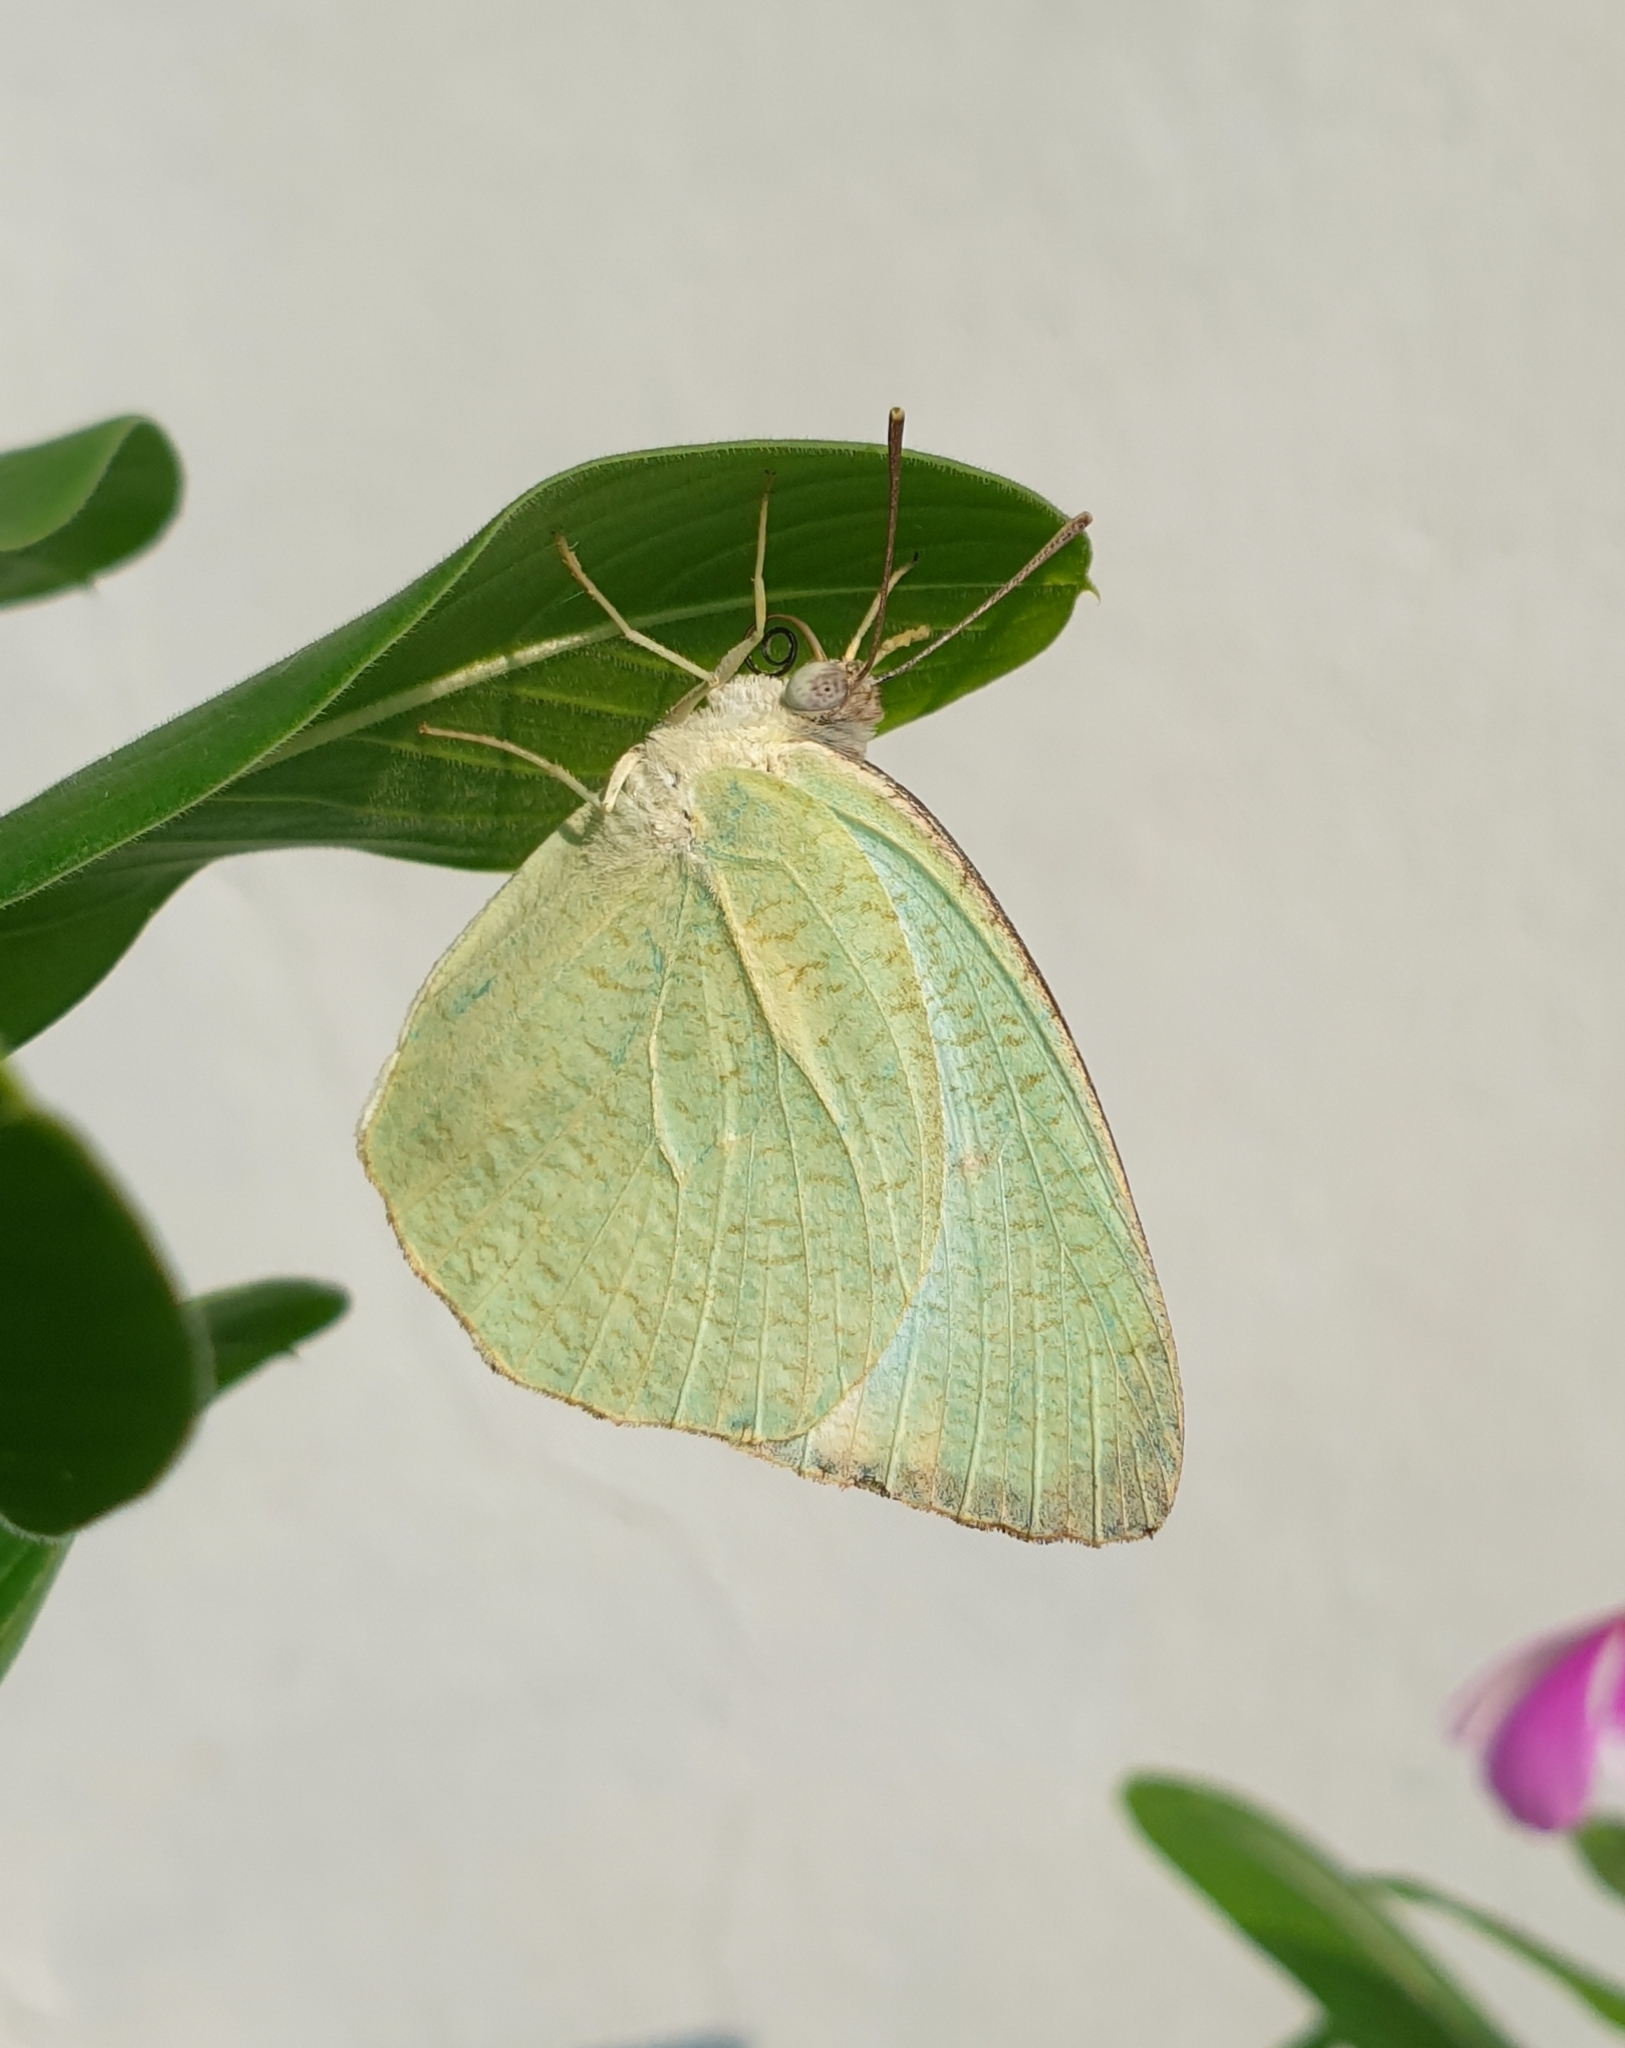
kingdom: Animalia
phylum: Arthropoda
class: Insecta
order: Lepidoptera
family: Pieridae
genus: Catopsilia
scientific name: Catopsilia pyranthe
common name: Mottled emigrant
